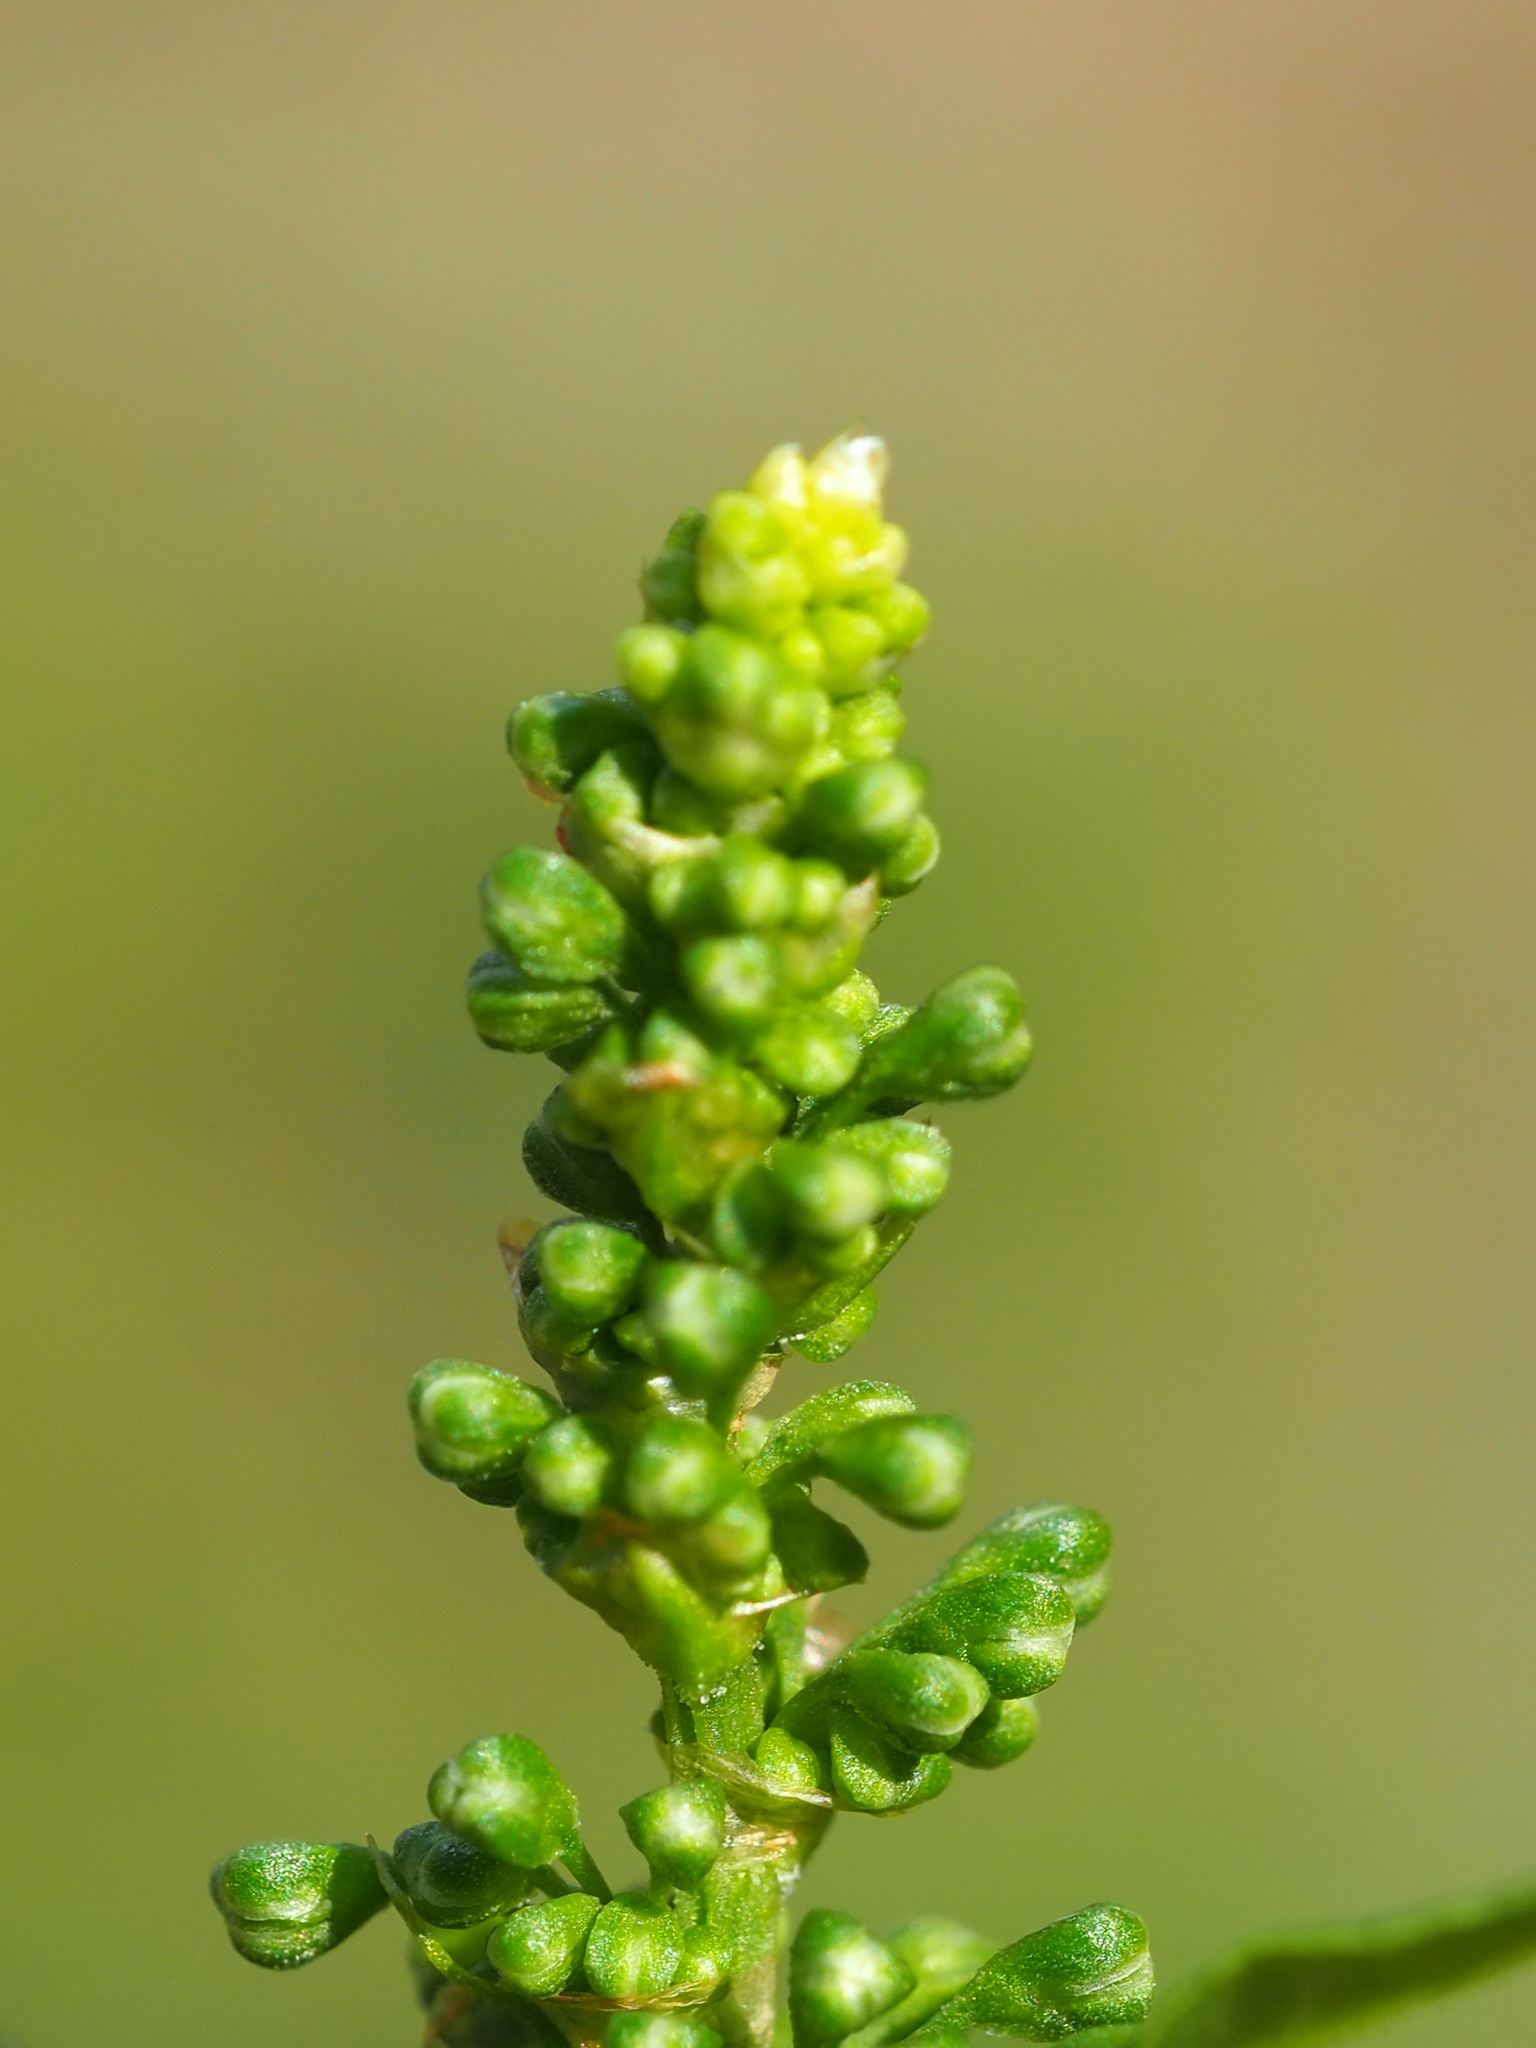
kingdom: Plantae
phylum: Tracheophyta
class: Magnoliopsida
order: Caryophyllales
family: Polygonaceae
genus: Rumex
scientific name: Rumex japonicus
